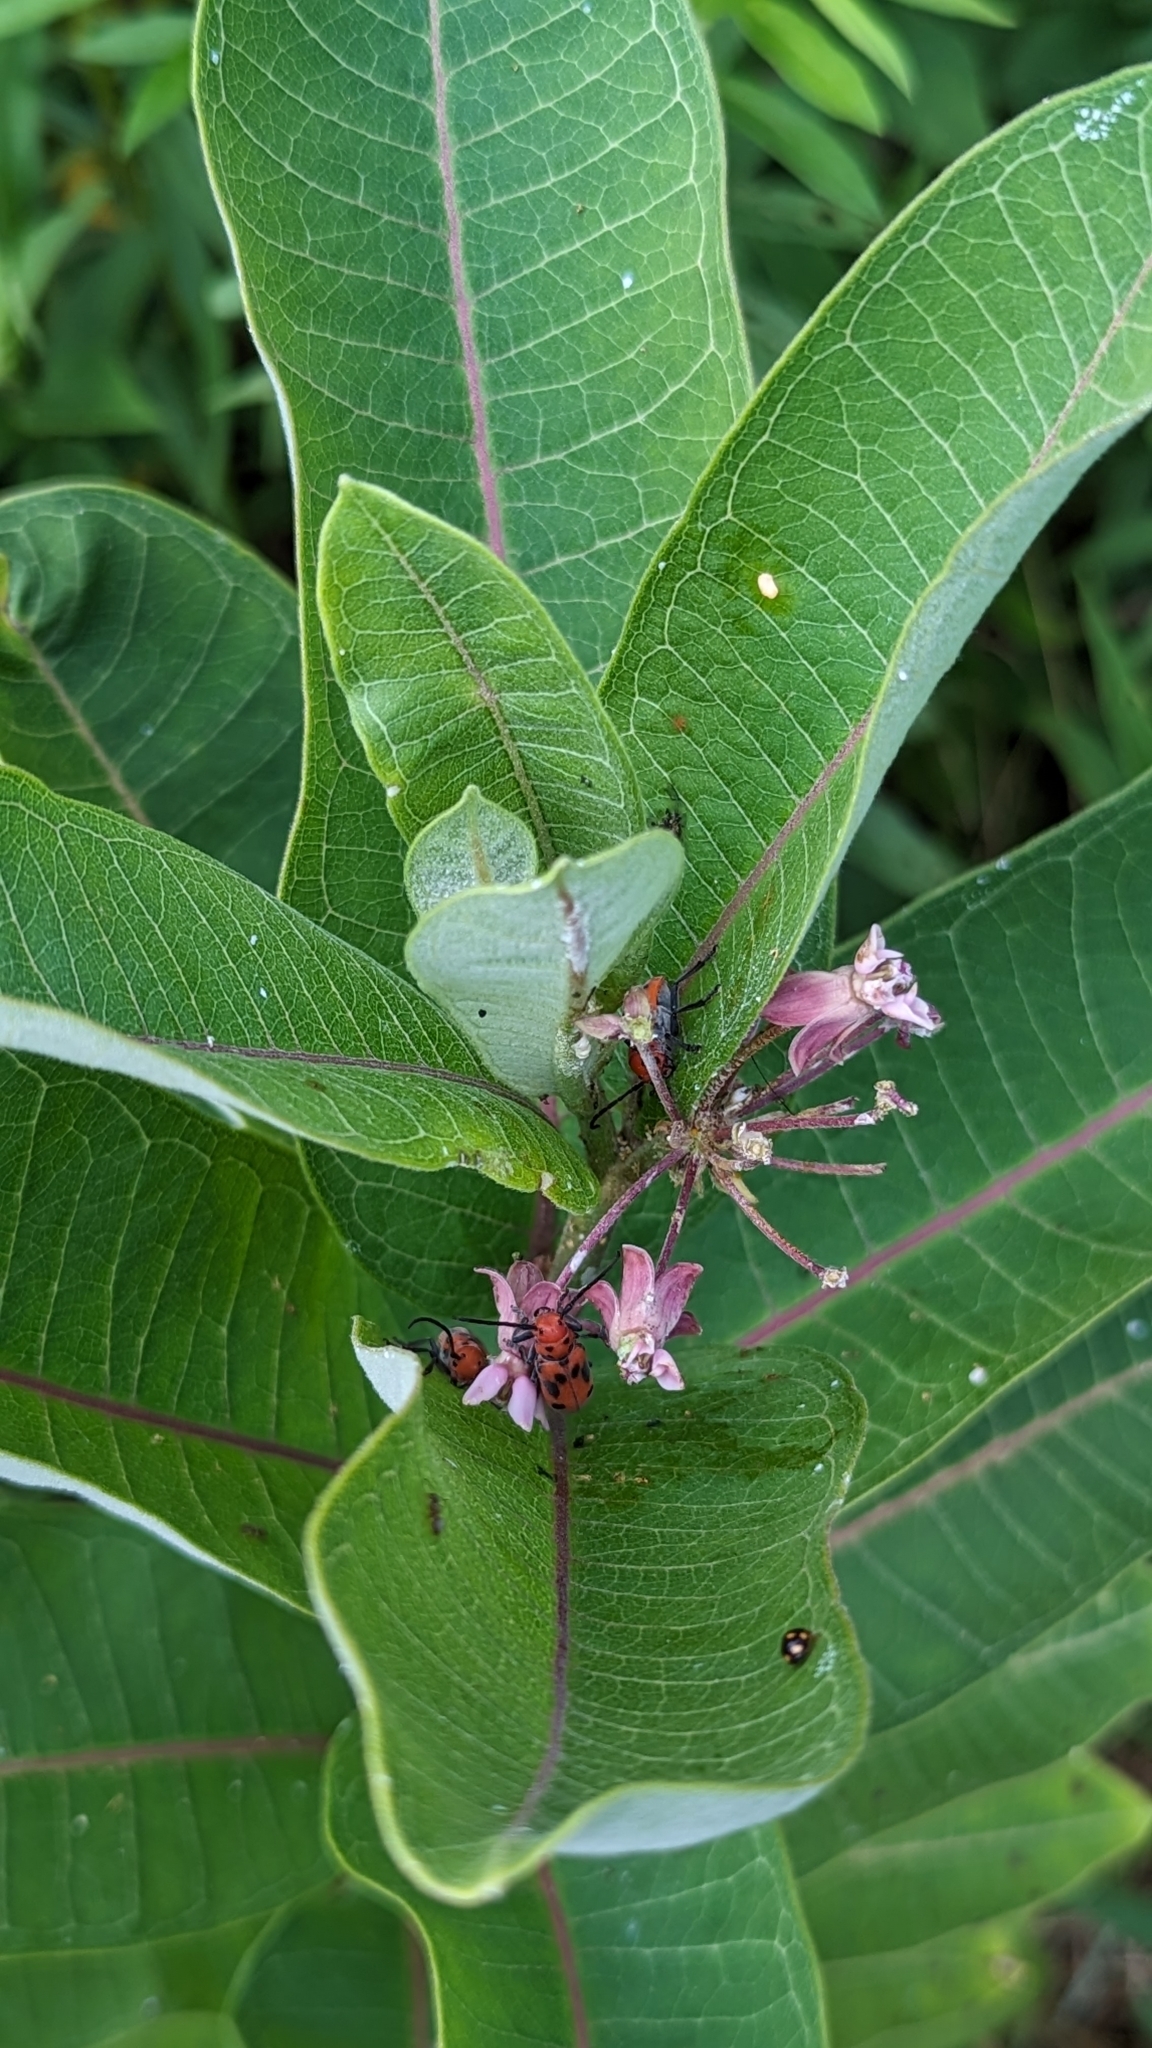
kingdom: Animalia
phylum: Arthropoda
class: Insecta
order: Coleoptera
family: Cerambycidae
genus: Tetraopes
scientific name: Tetraopes tetrophthalmus
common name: Red milkweed beetle
